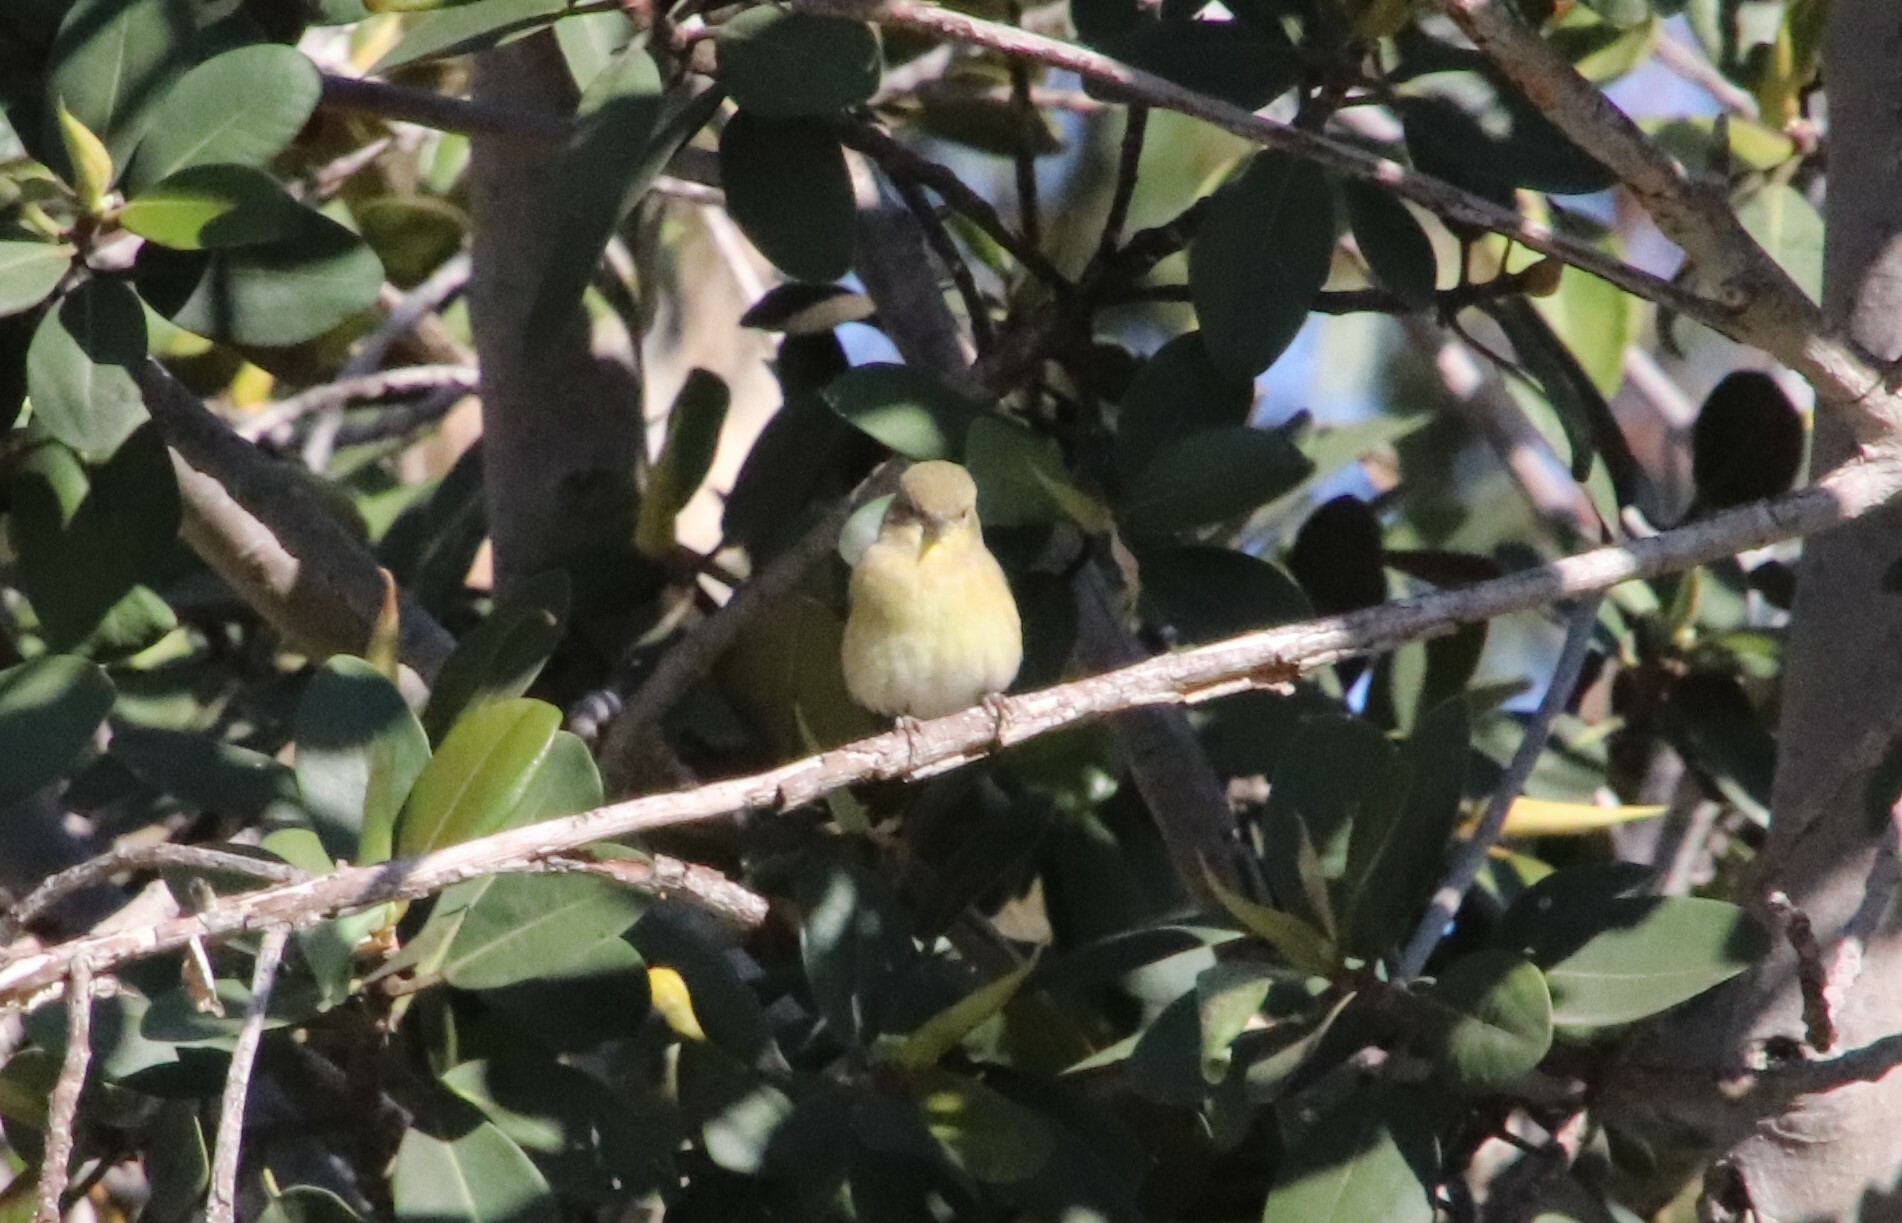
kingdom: Animalia
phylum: Chordata
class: Aves
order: Passeriformes
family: Fringillidae
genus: Spinus
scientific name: Spinus psaltria
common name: Lesser goldfinch
